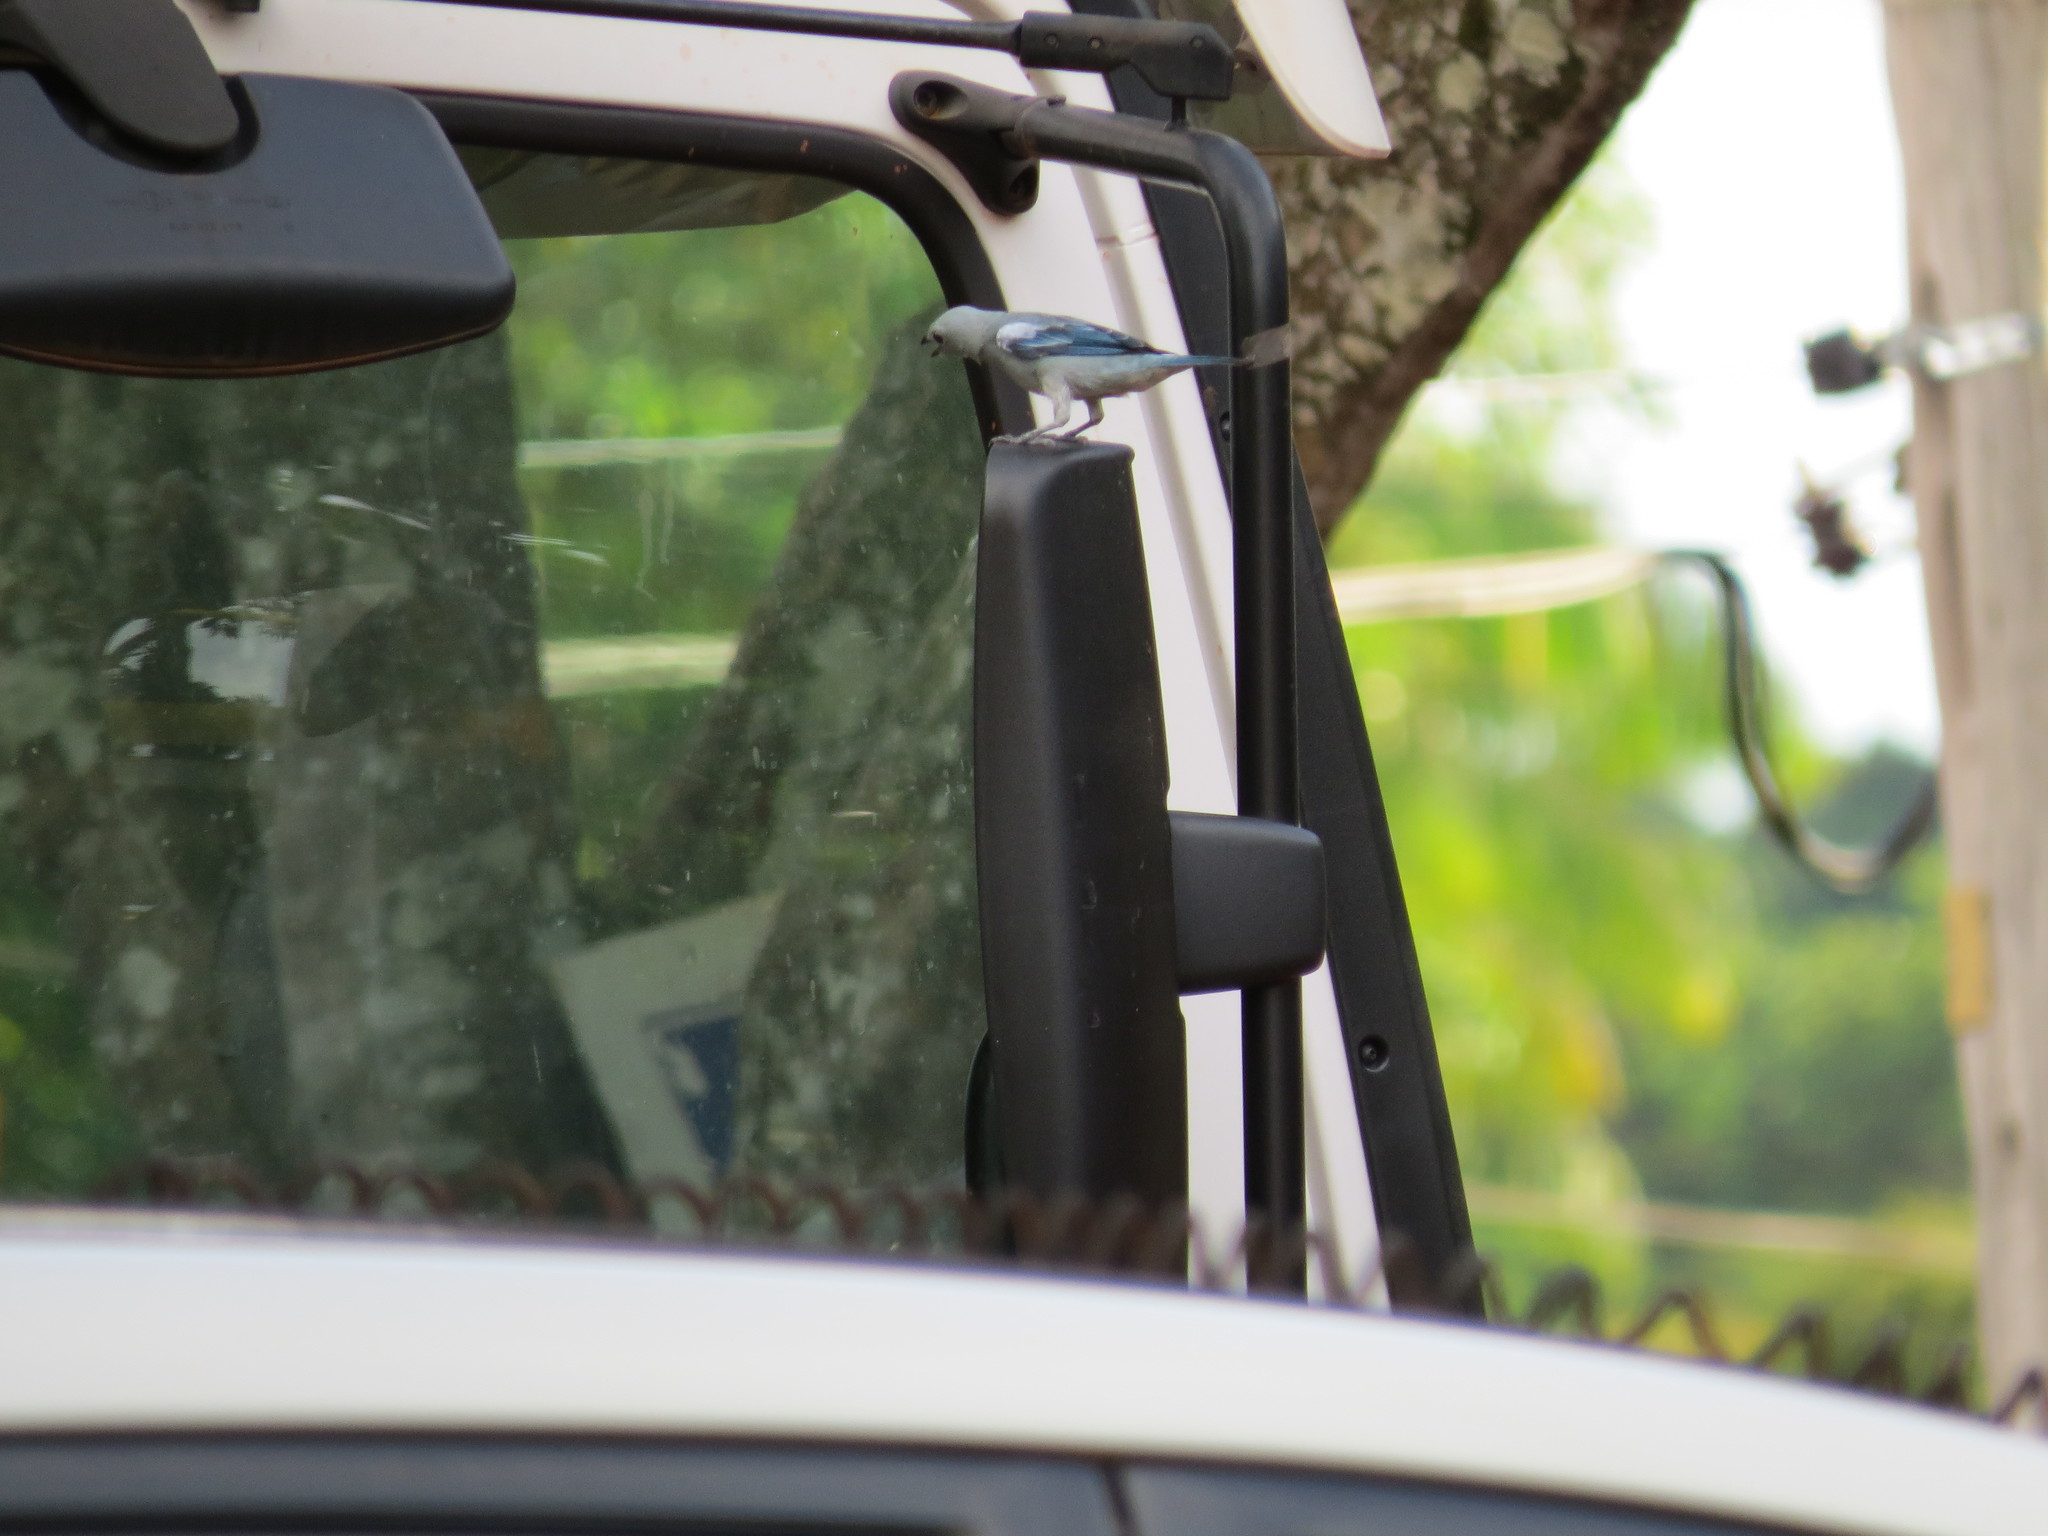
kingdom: Animalia
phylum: Chordata
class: Aves
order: Passeriformes
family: Thraupidae
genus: Thraupis
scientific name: Thraupis episcopus
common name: Blue-grey tanager
